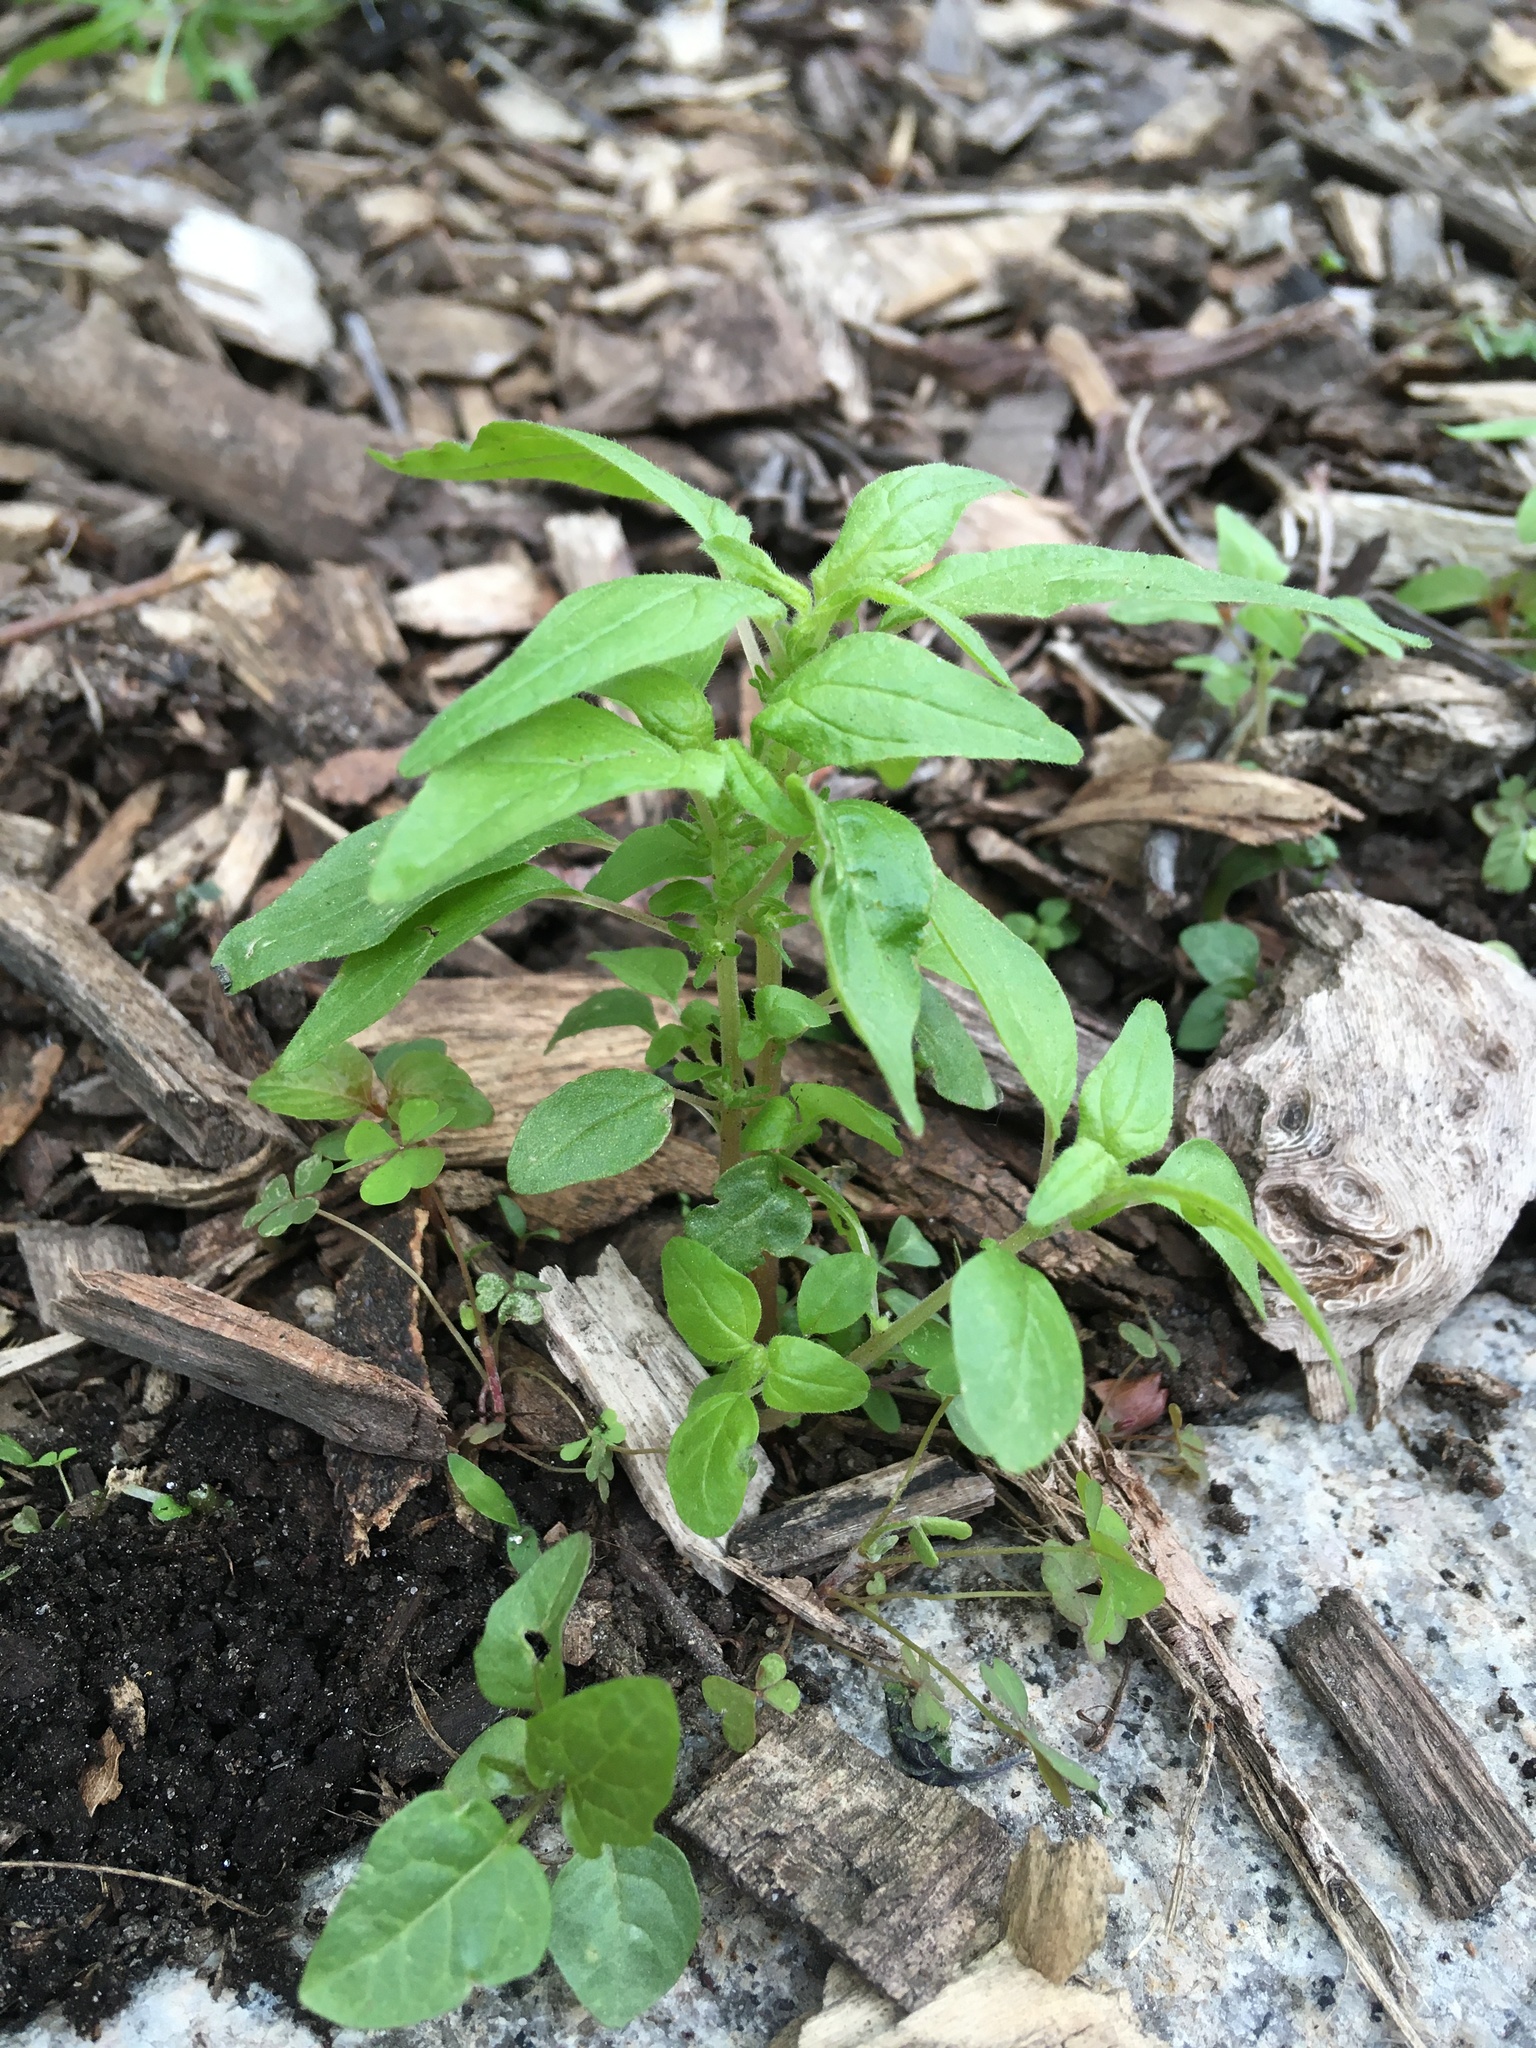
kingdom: Plantae
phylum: Tracheophyta
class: Magnoliopsida
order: Rosales
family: Urticaceae
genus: Parietaria
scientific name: Parietaria pensylvanica
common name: Pennsylvania pellitory
